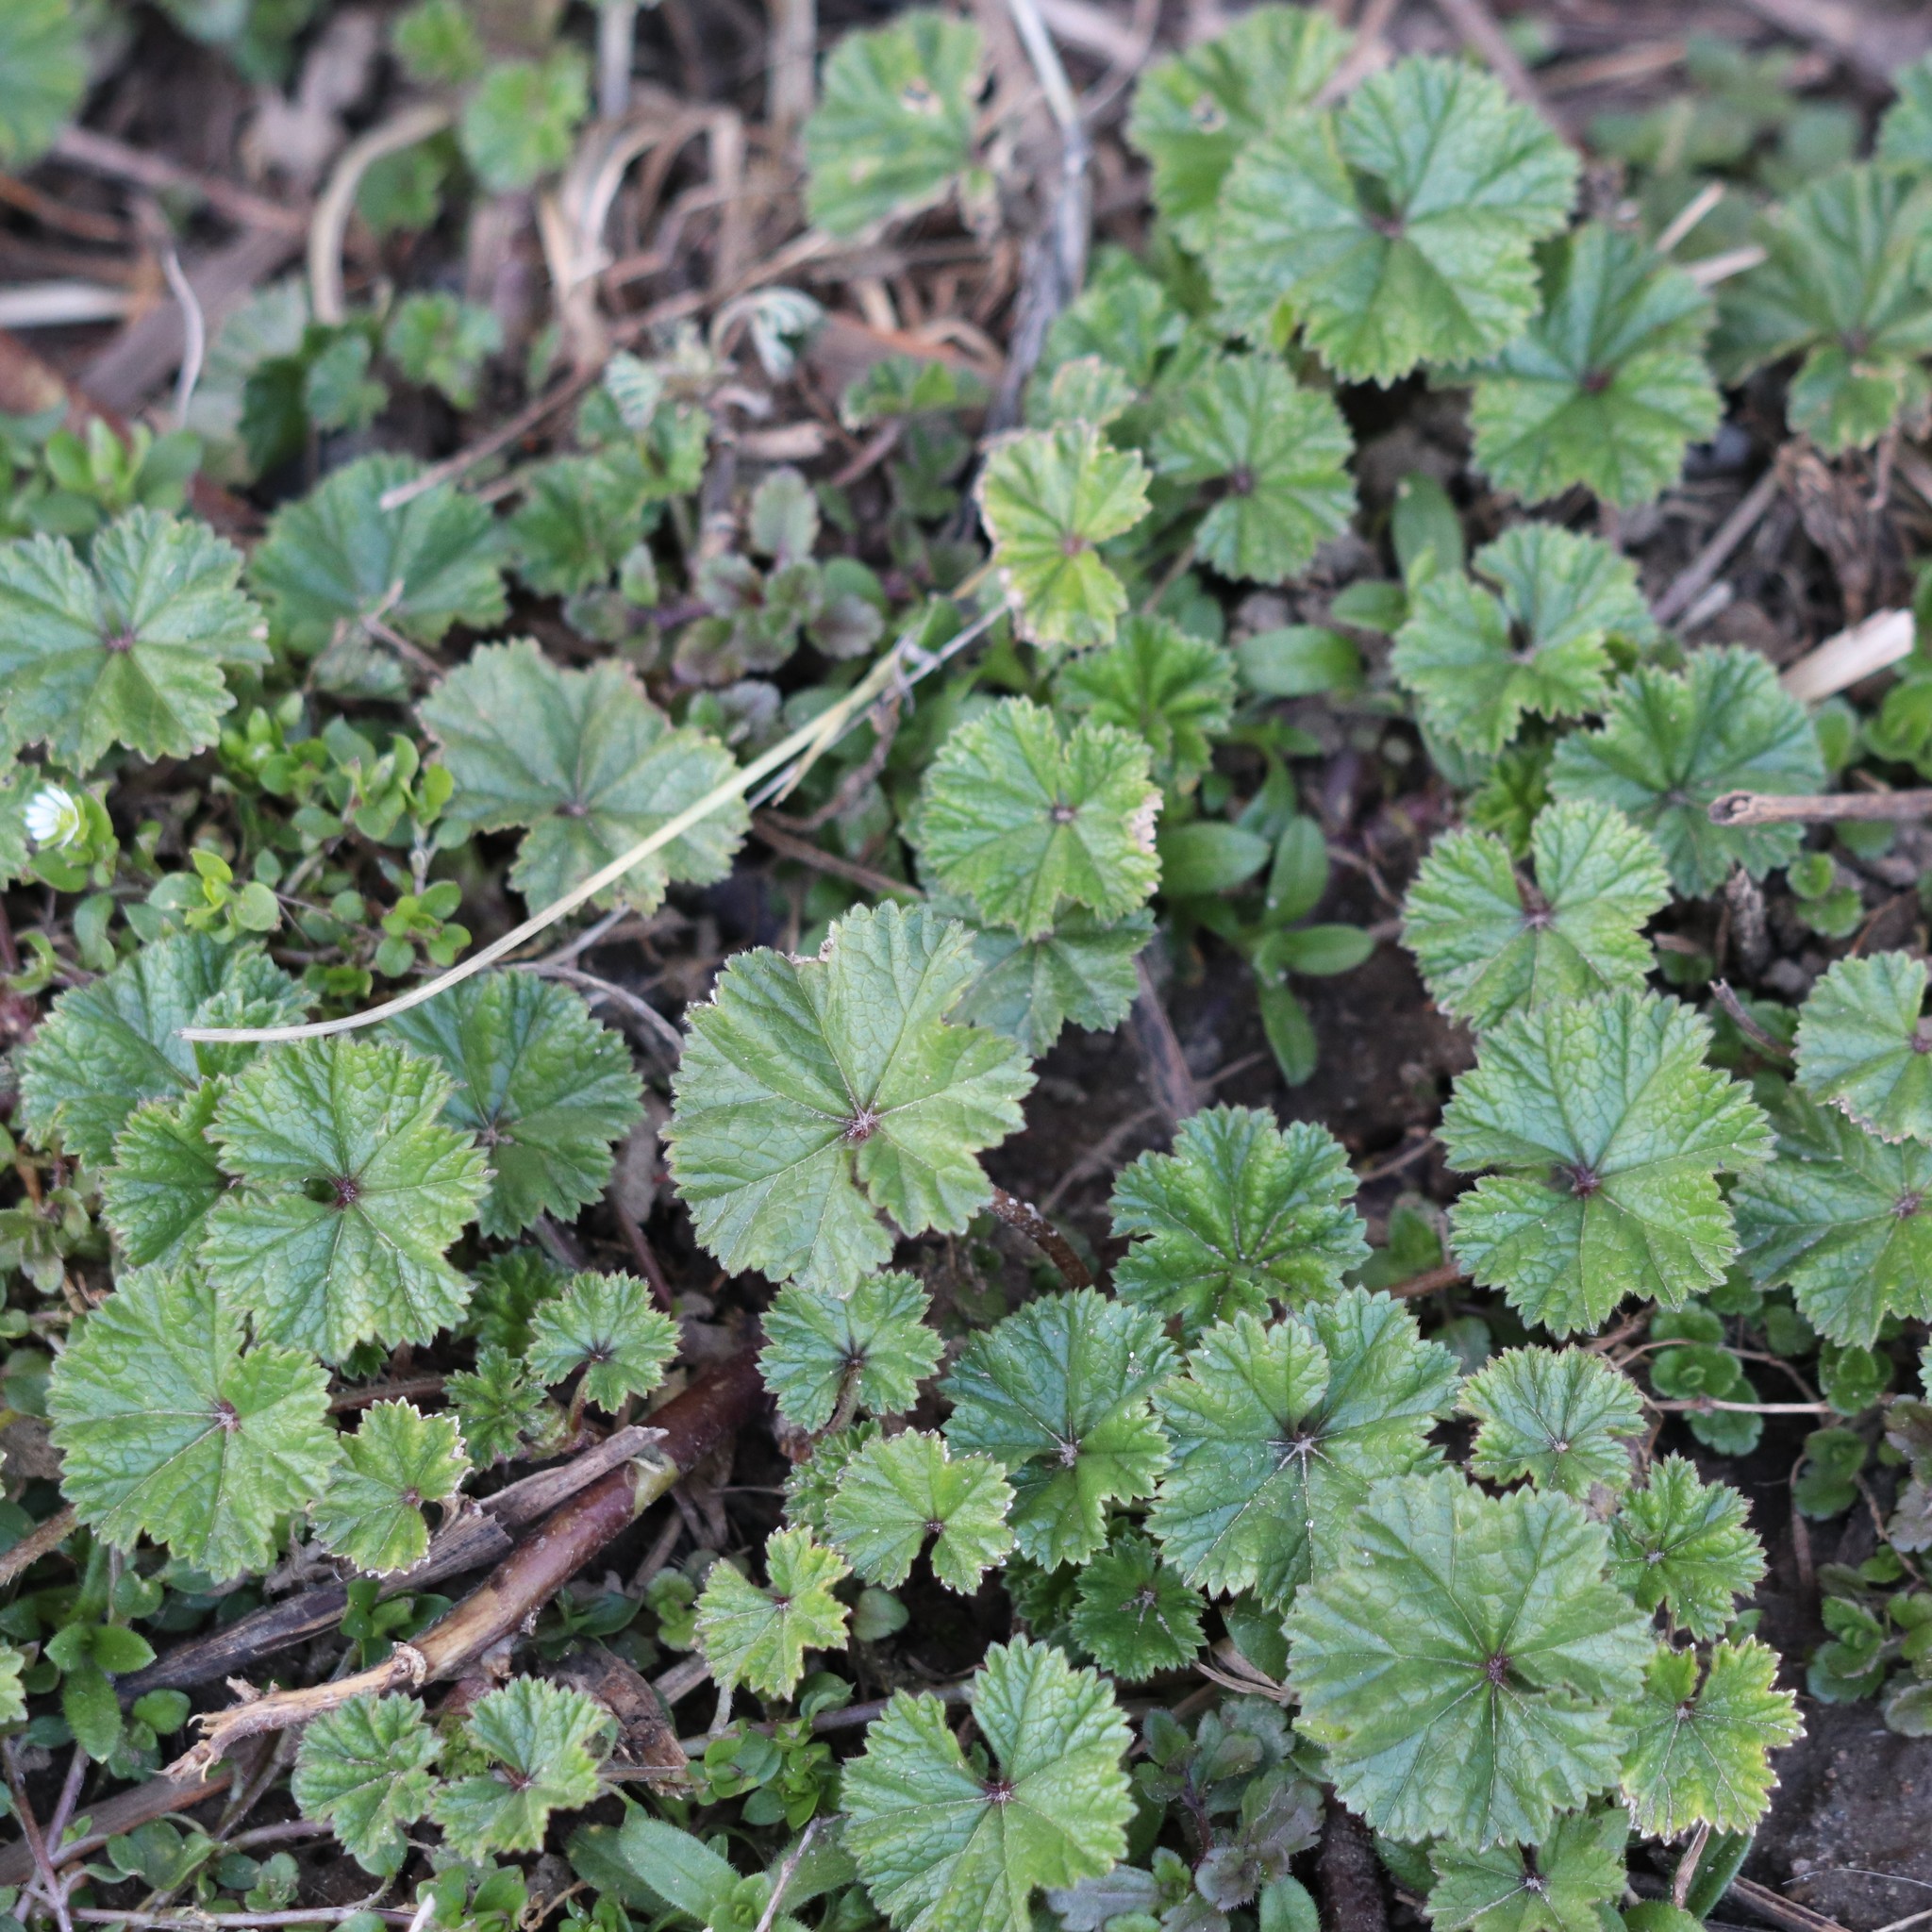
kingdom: Plantae
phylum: Tracheophyta
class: Magnoliopsida
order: Malvales
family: Malvaceae
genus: Malva
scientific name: Malva neglecta
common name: Common mallow
